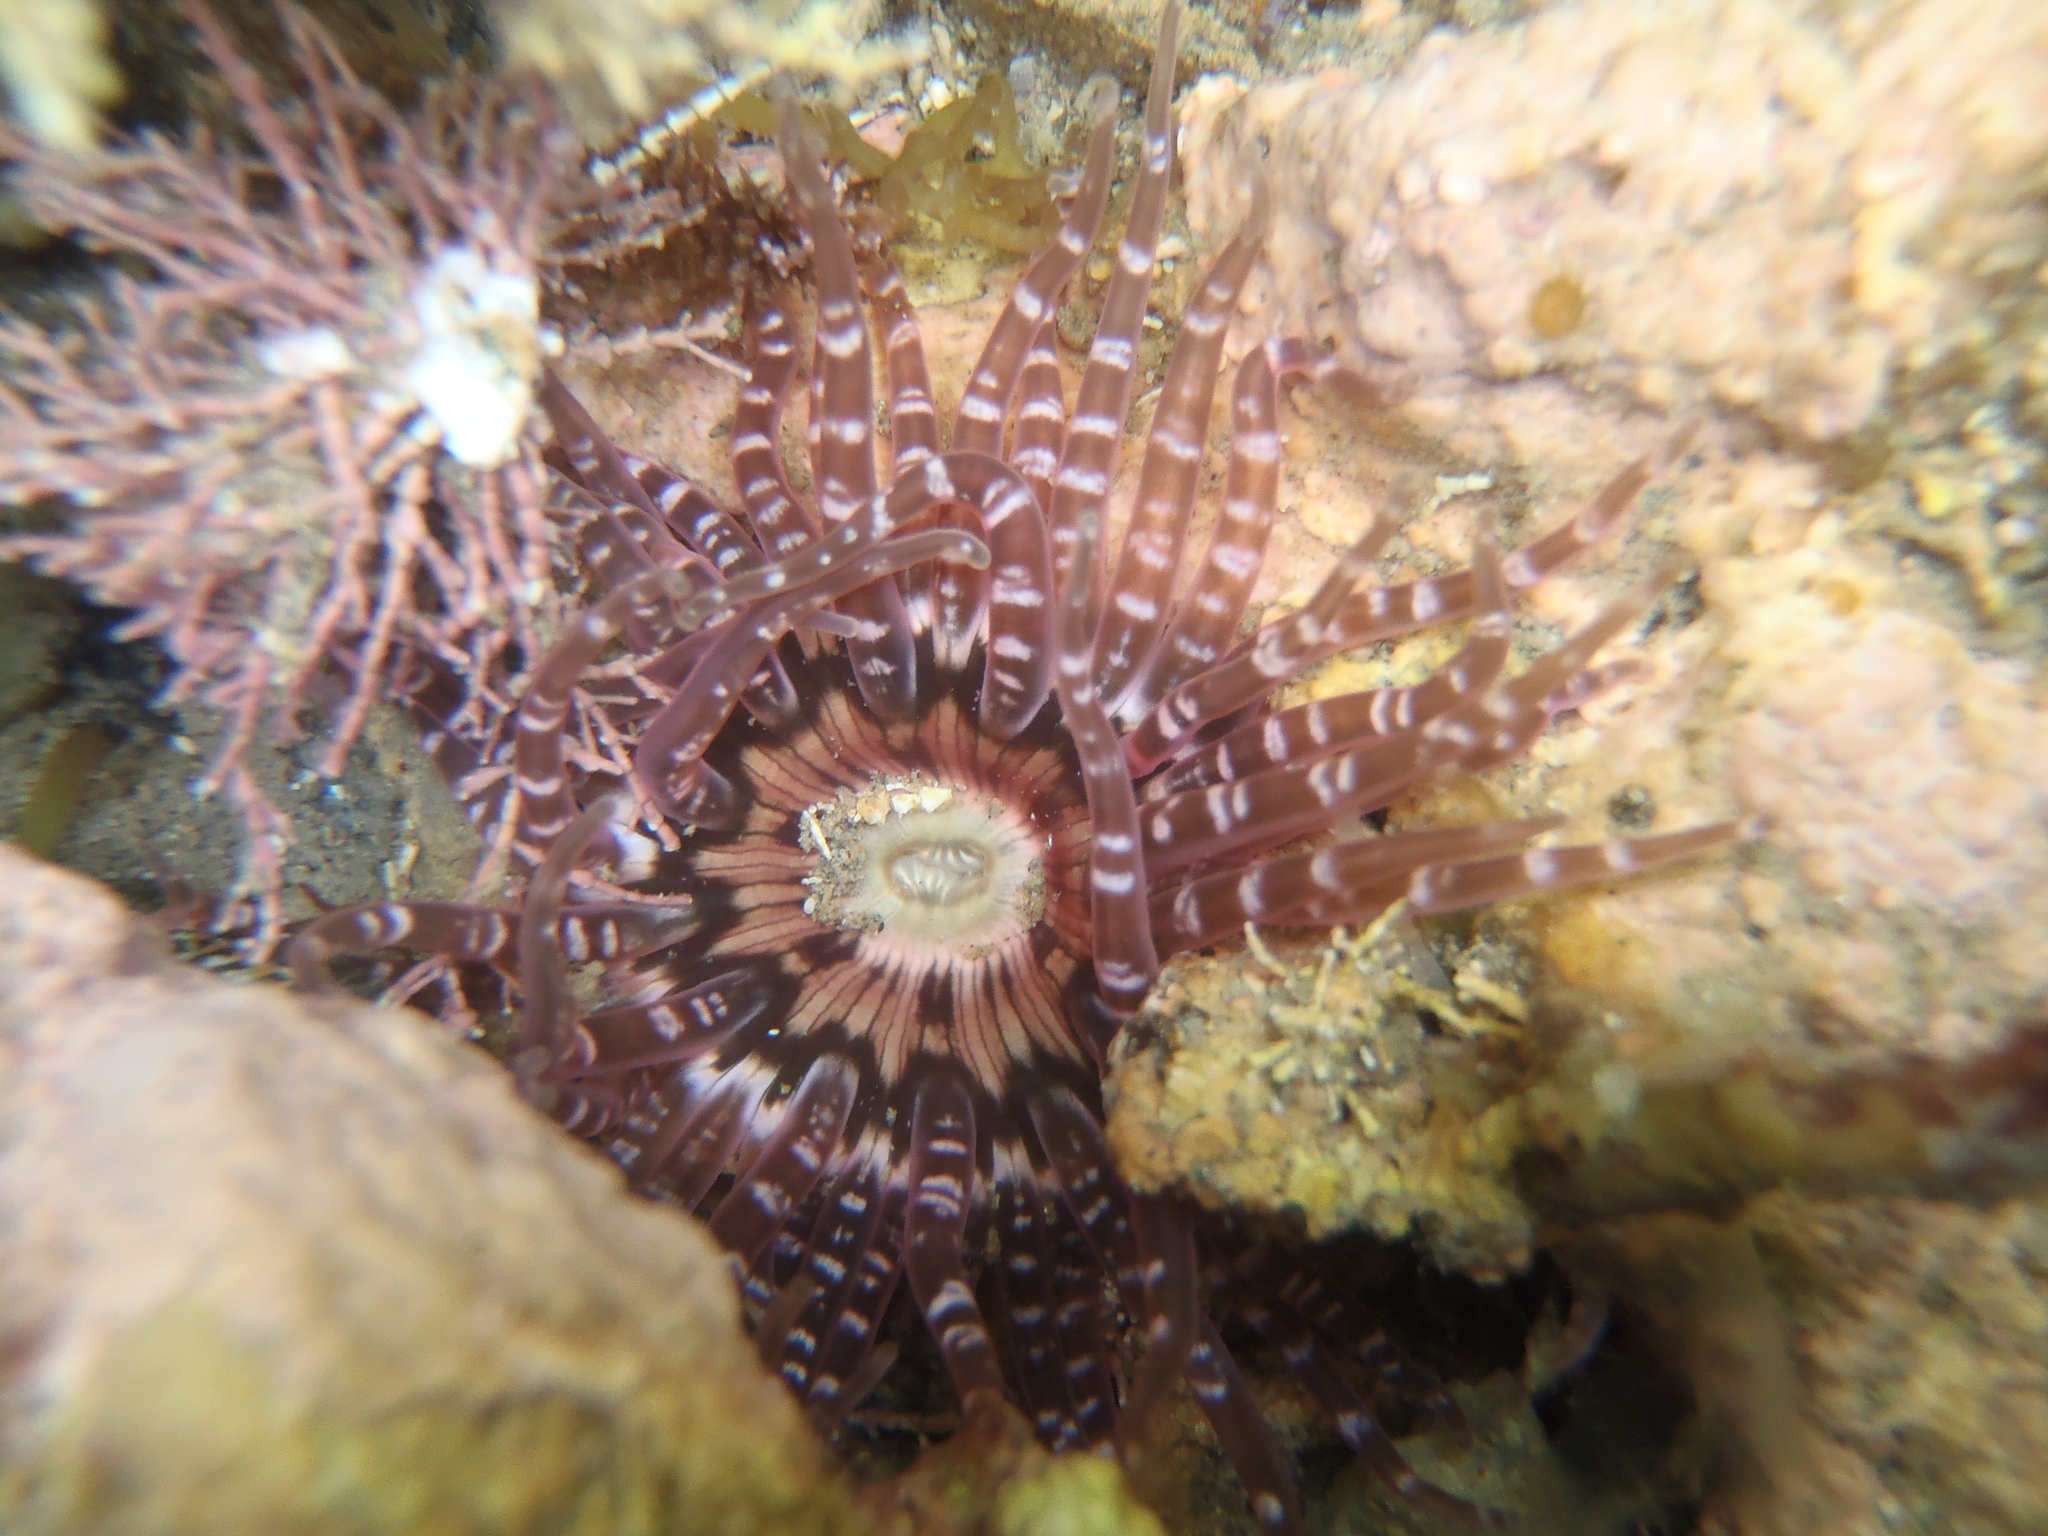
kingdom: Animalia
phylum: Cnidaria
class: Anthozoa
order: Actiniaria
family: Actiniidae
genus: Anthopleura
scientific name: Anthopleura rosea
